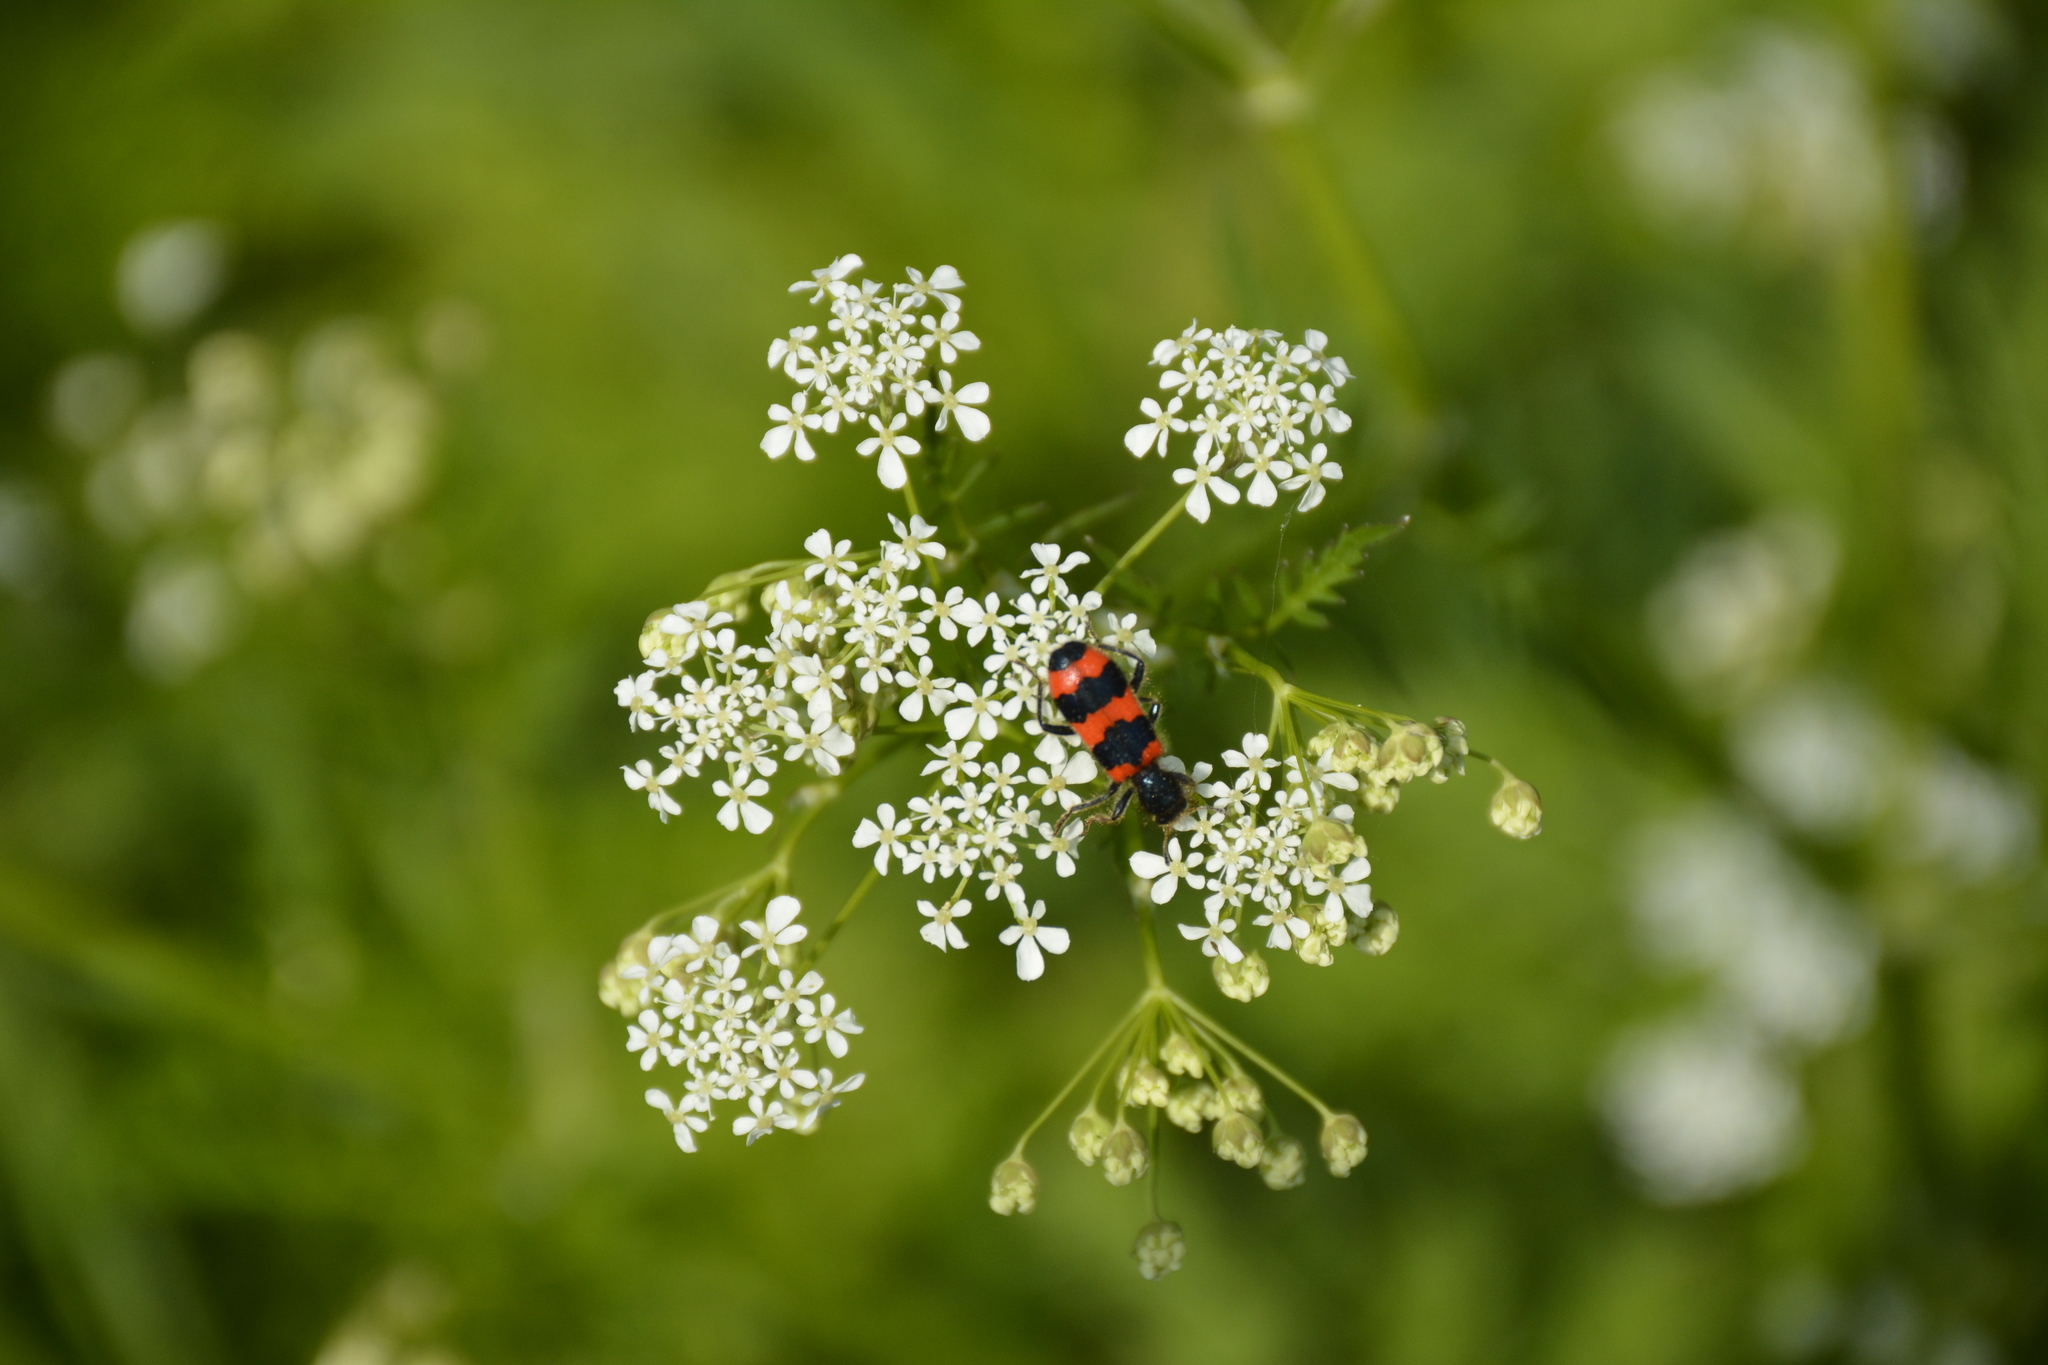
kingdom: Animalia
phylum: Arthropoda
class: Insecta
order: Coleoptera
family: Cleridae
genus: Trichodes
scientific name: Trichodes apiarius
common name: Bee-eating beetle
